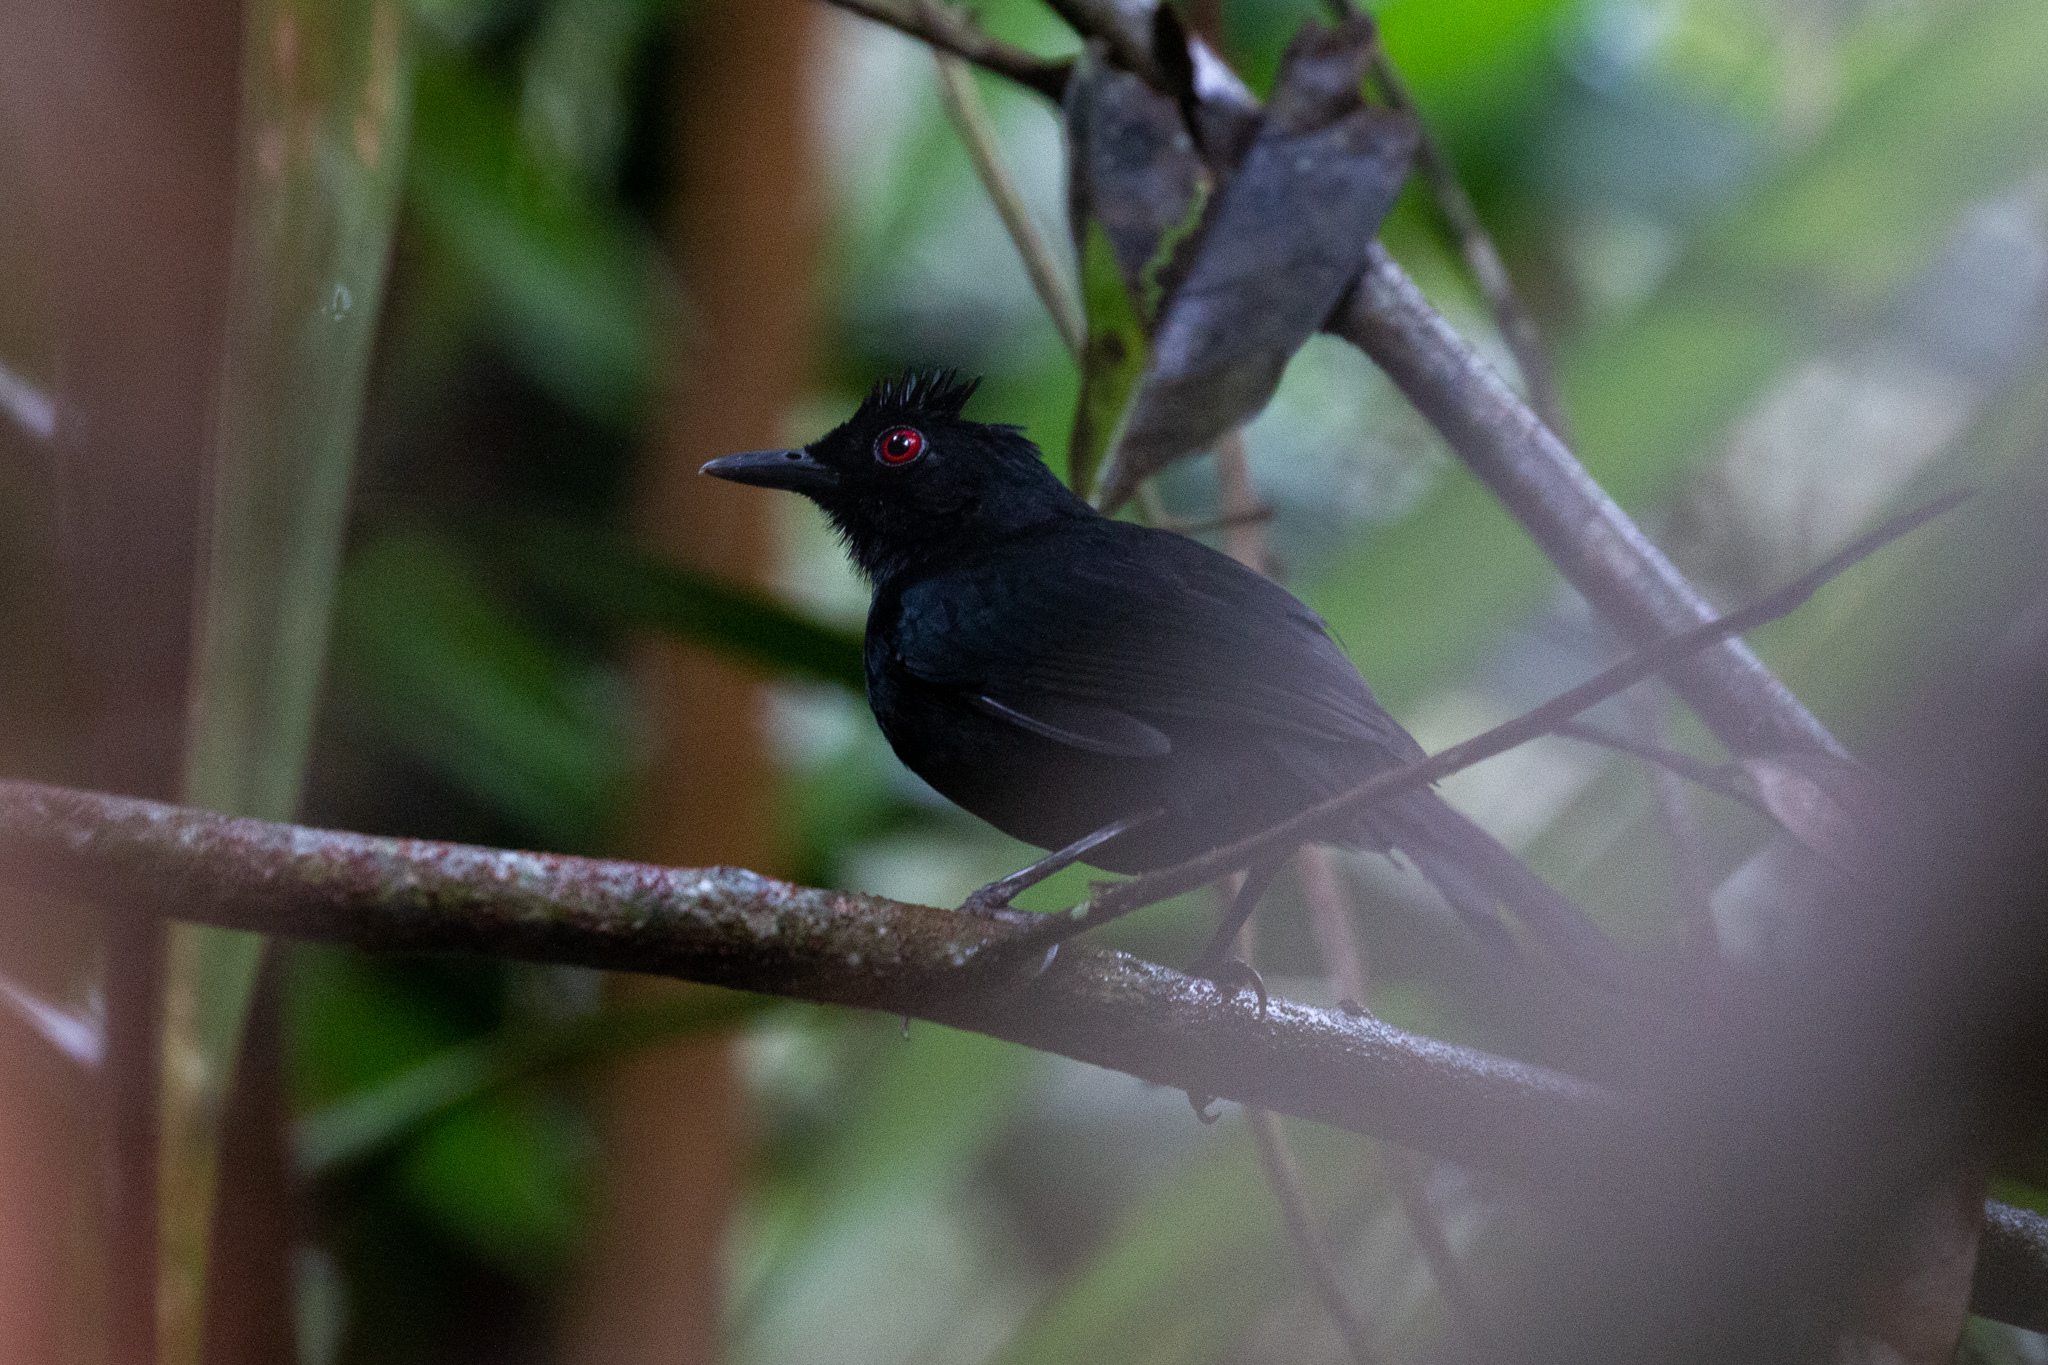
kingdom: Animalia
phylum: Chordata
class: Aves
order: Passeriformes
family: Thamnophilidae
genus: Pyriglena
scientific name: Pyriglena leuconota
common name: White-backed fire-eye
